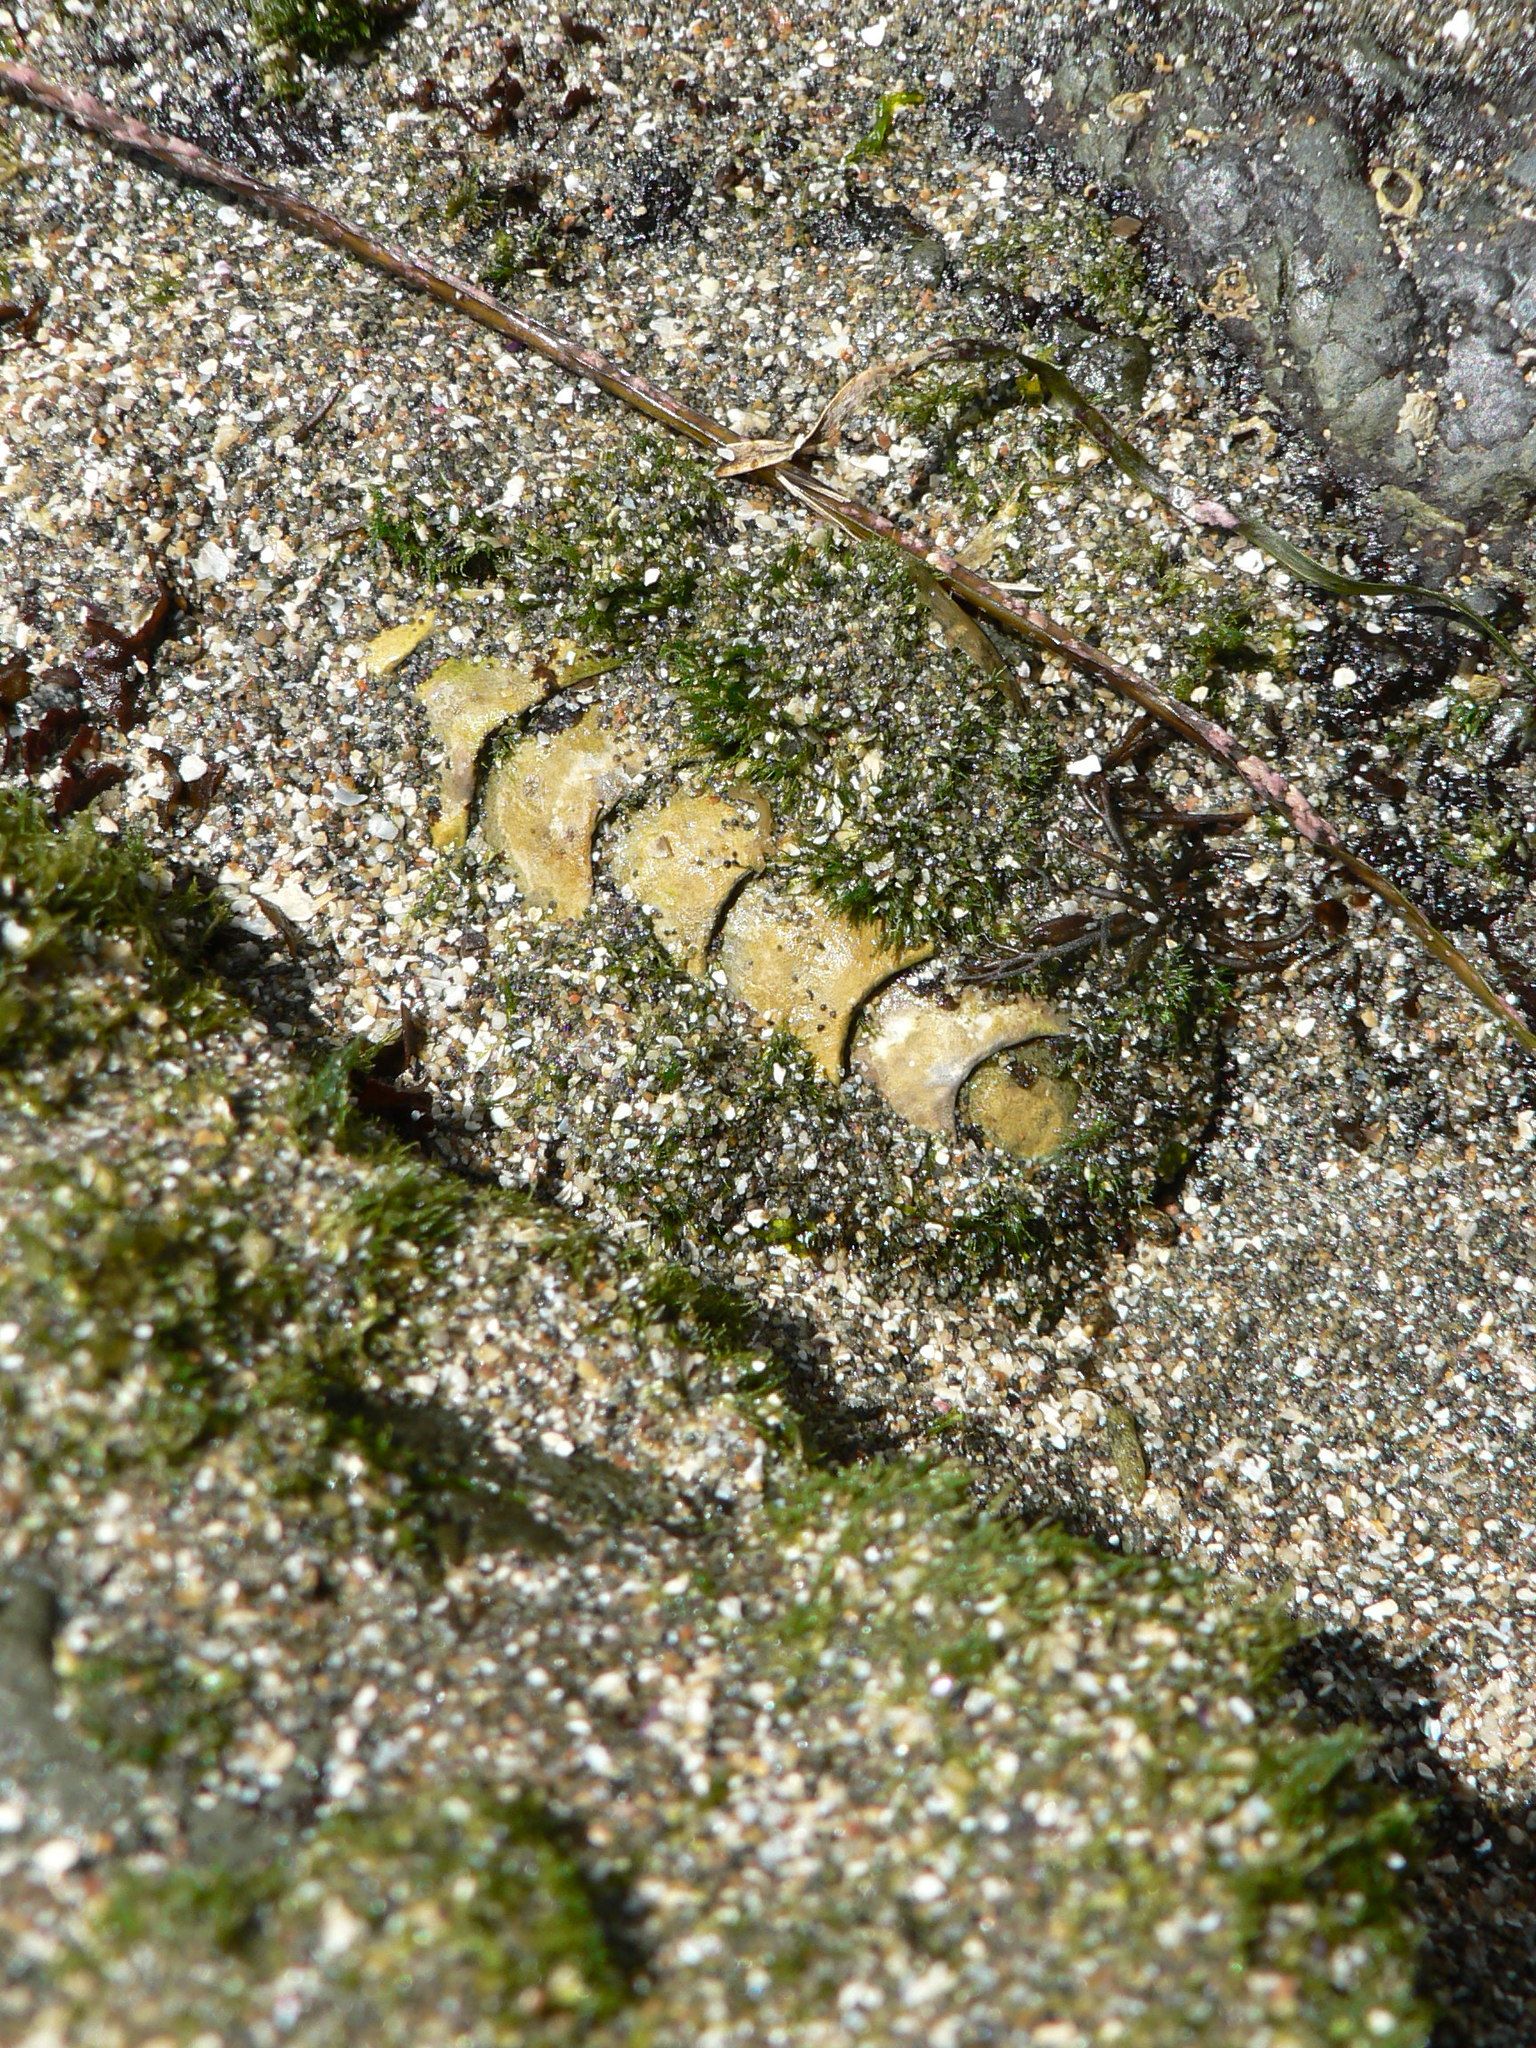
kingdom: Animalia
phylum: Mollusca
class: Polyplacophora
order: Chitonida
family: Mopaliidae
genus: Mopalia
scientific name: Mopalia muscosa
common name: Mossy chiton
